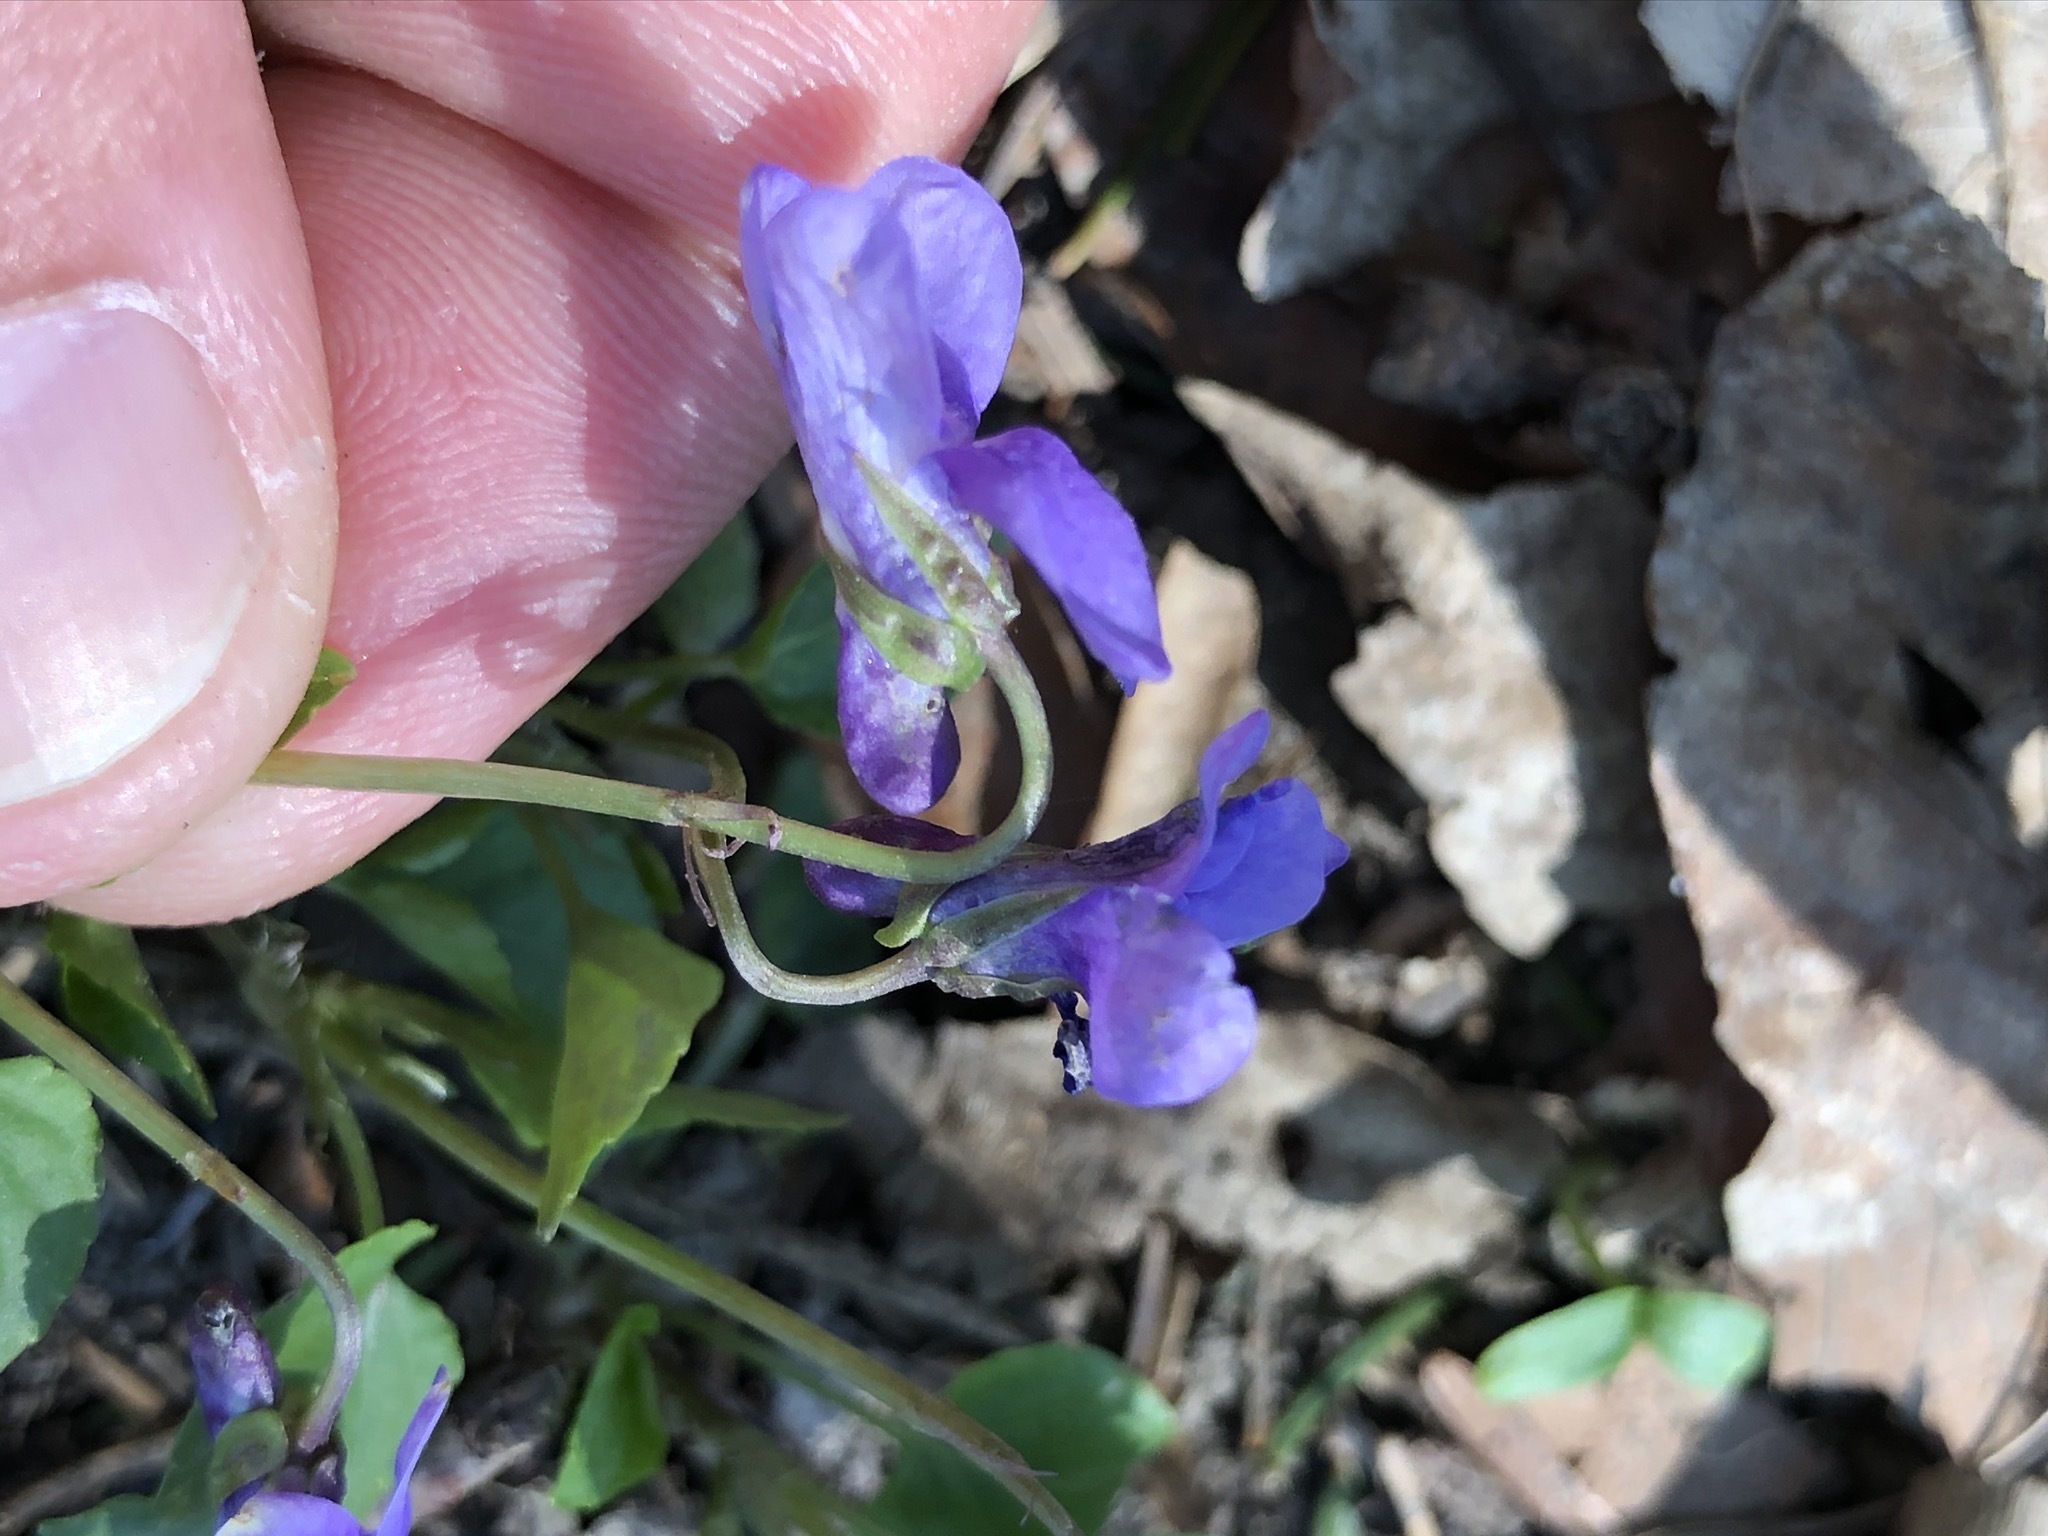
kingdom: Plantae
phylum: Tracheophyta
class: Magnoliopsida
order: Malpighiales
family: Violaceae
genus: Viola
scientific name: Viola reichenbachiana
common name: Early dog-violet
